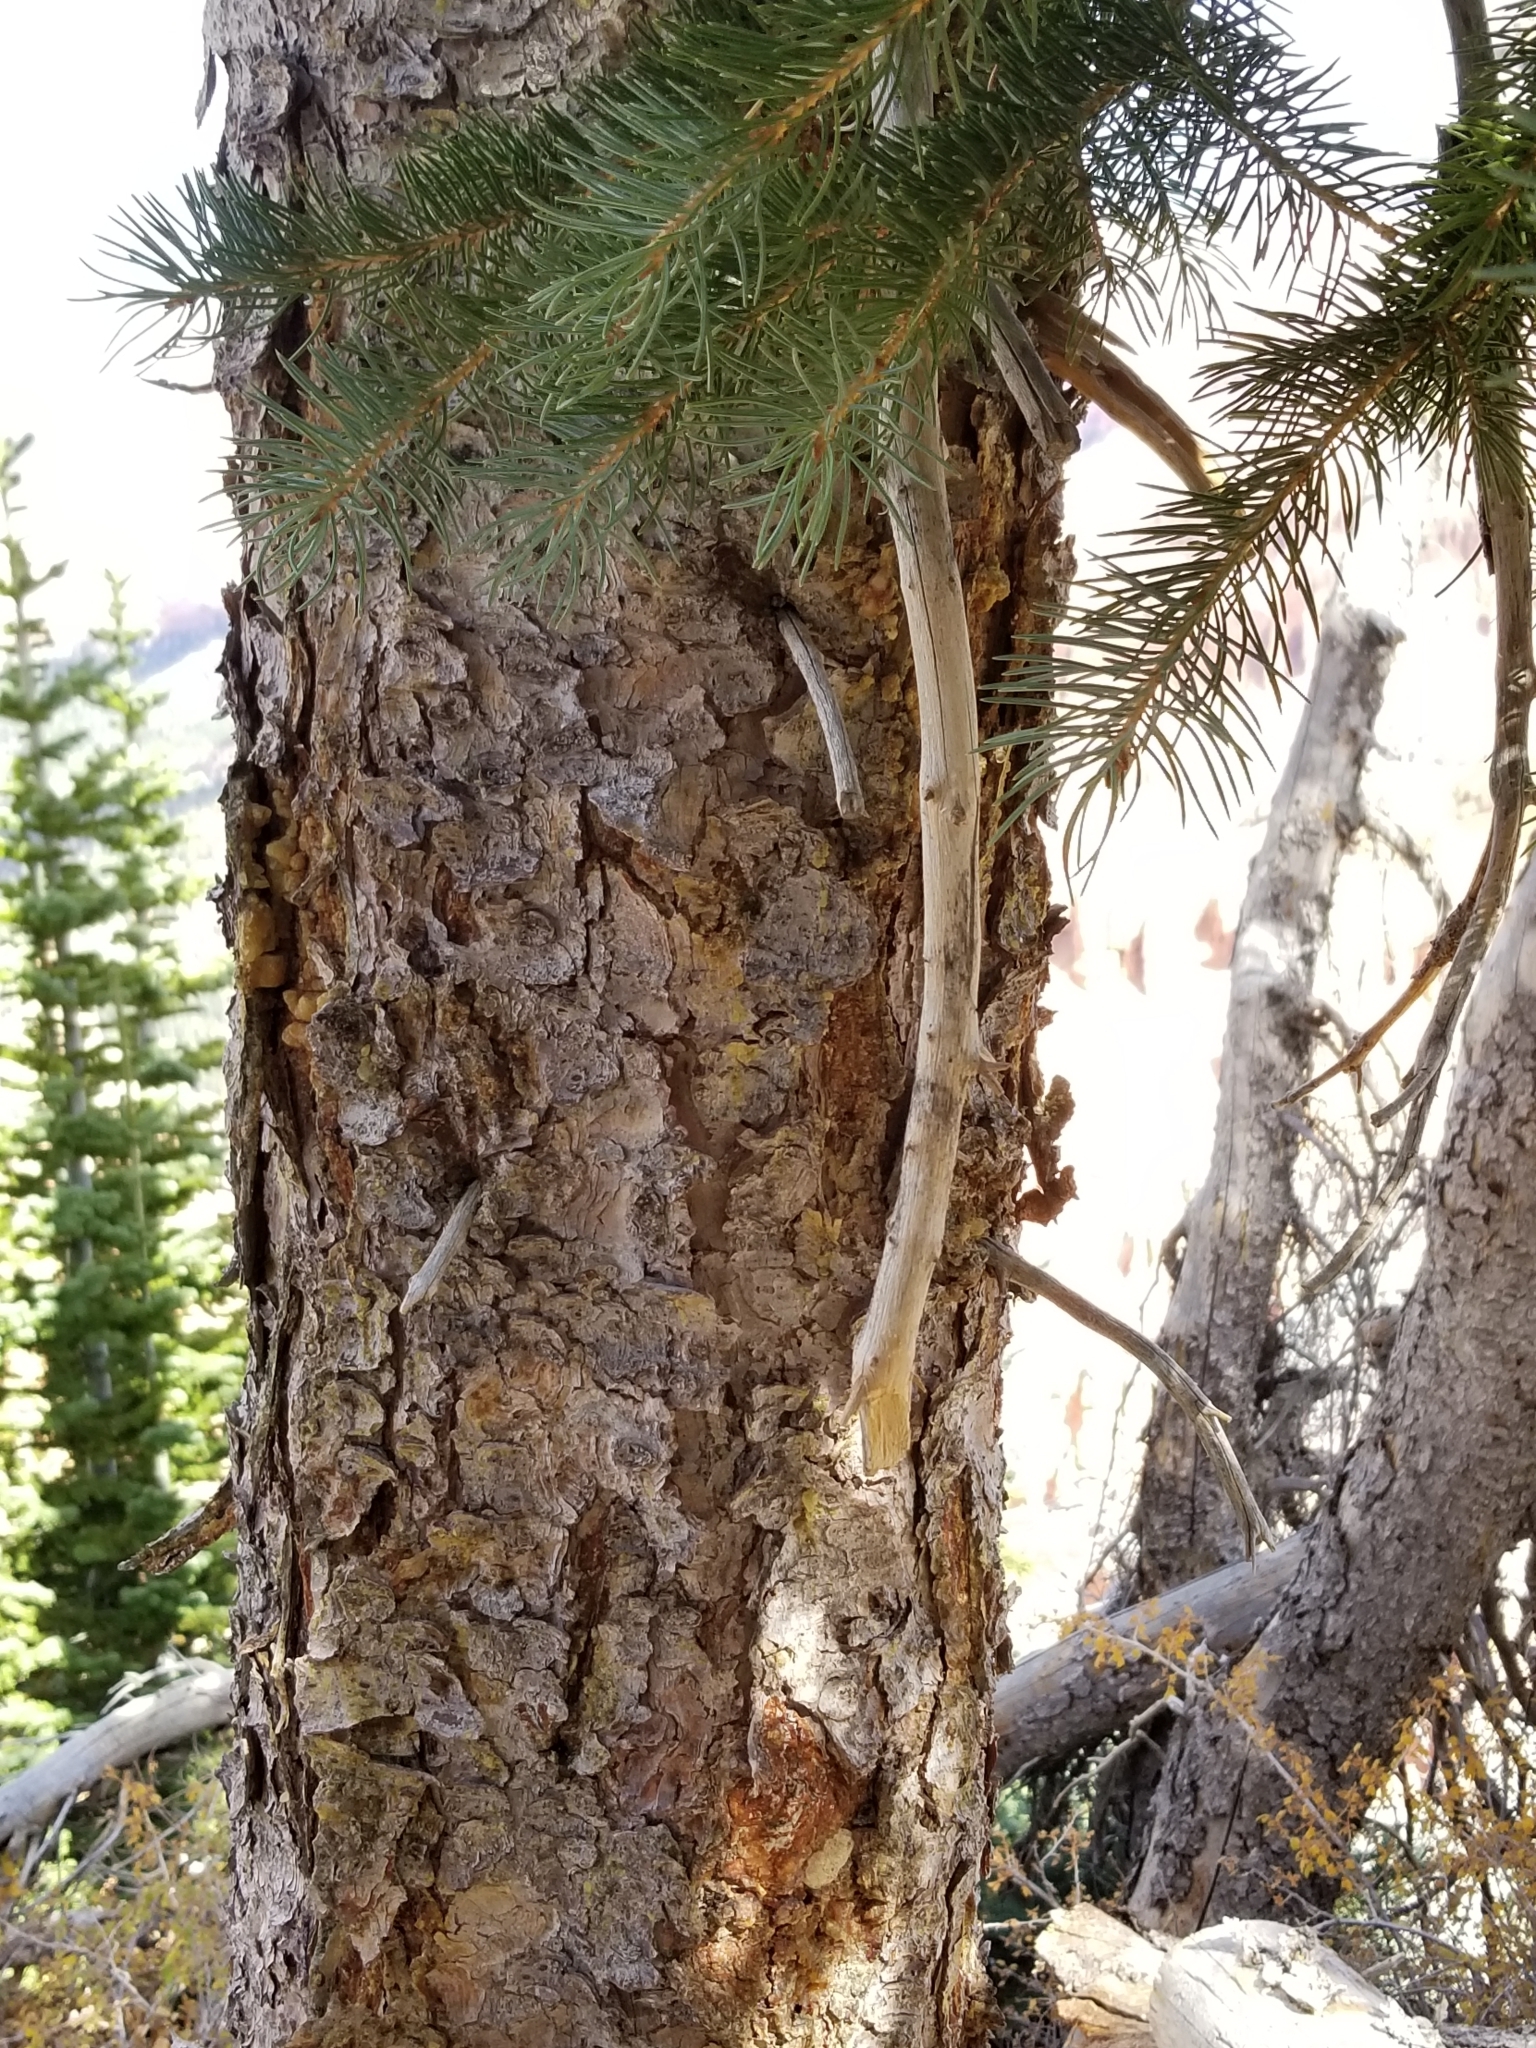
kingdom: Plantae
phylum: Tracheophyta
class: Pinopsida
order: Pinales
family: Pinaceae
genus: Picea
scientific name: Picea pungens
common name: Colorado spruce
